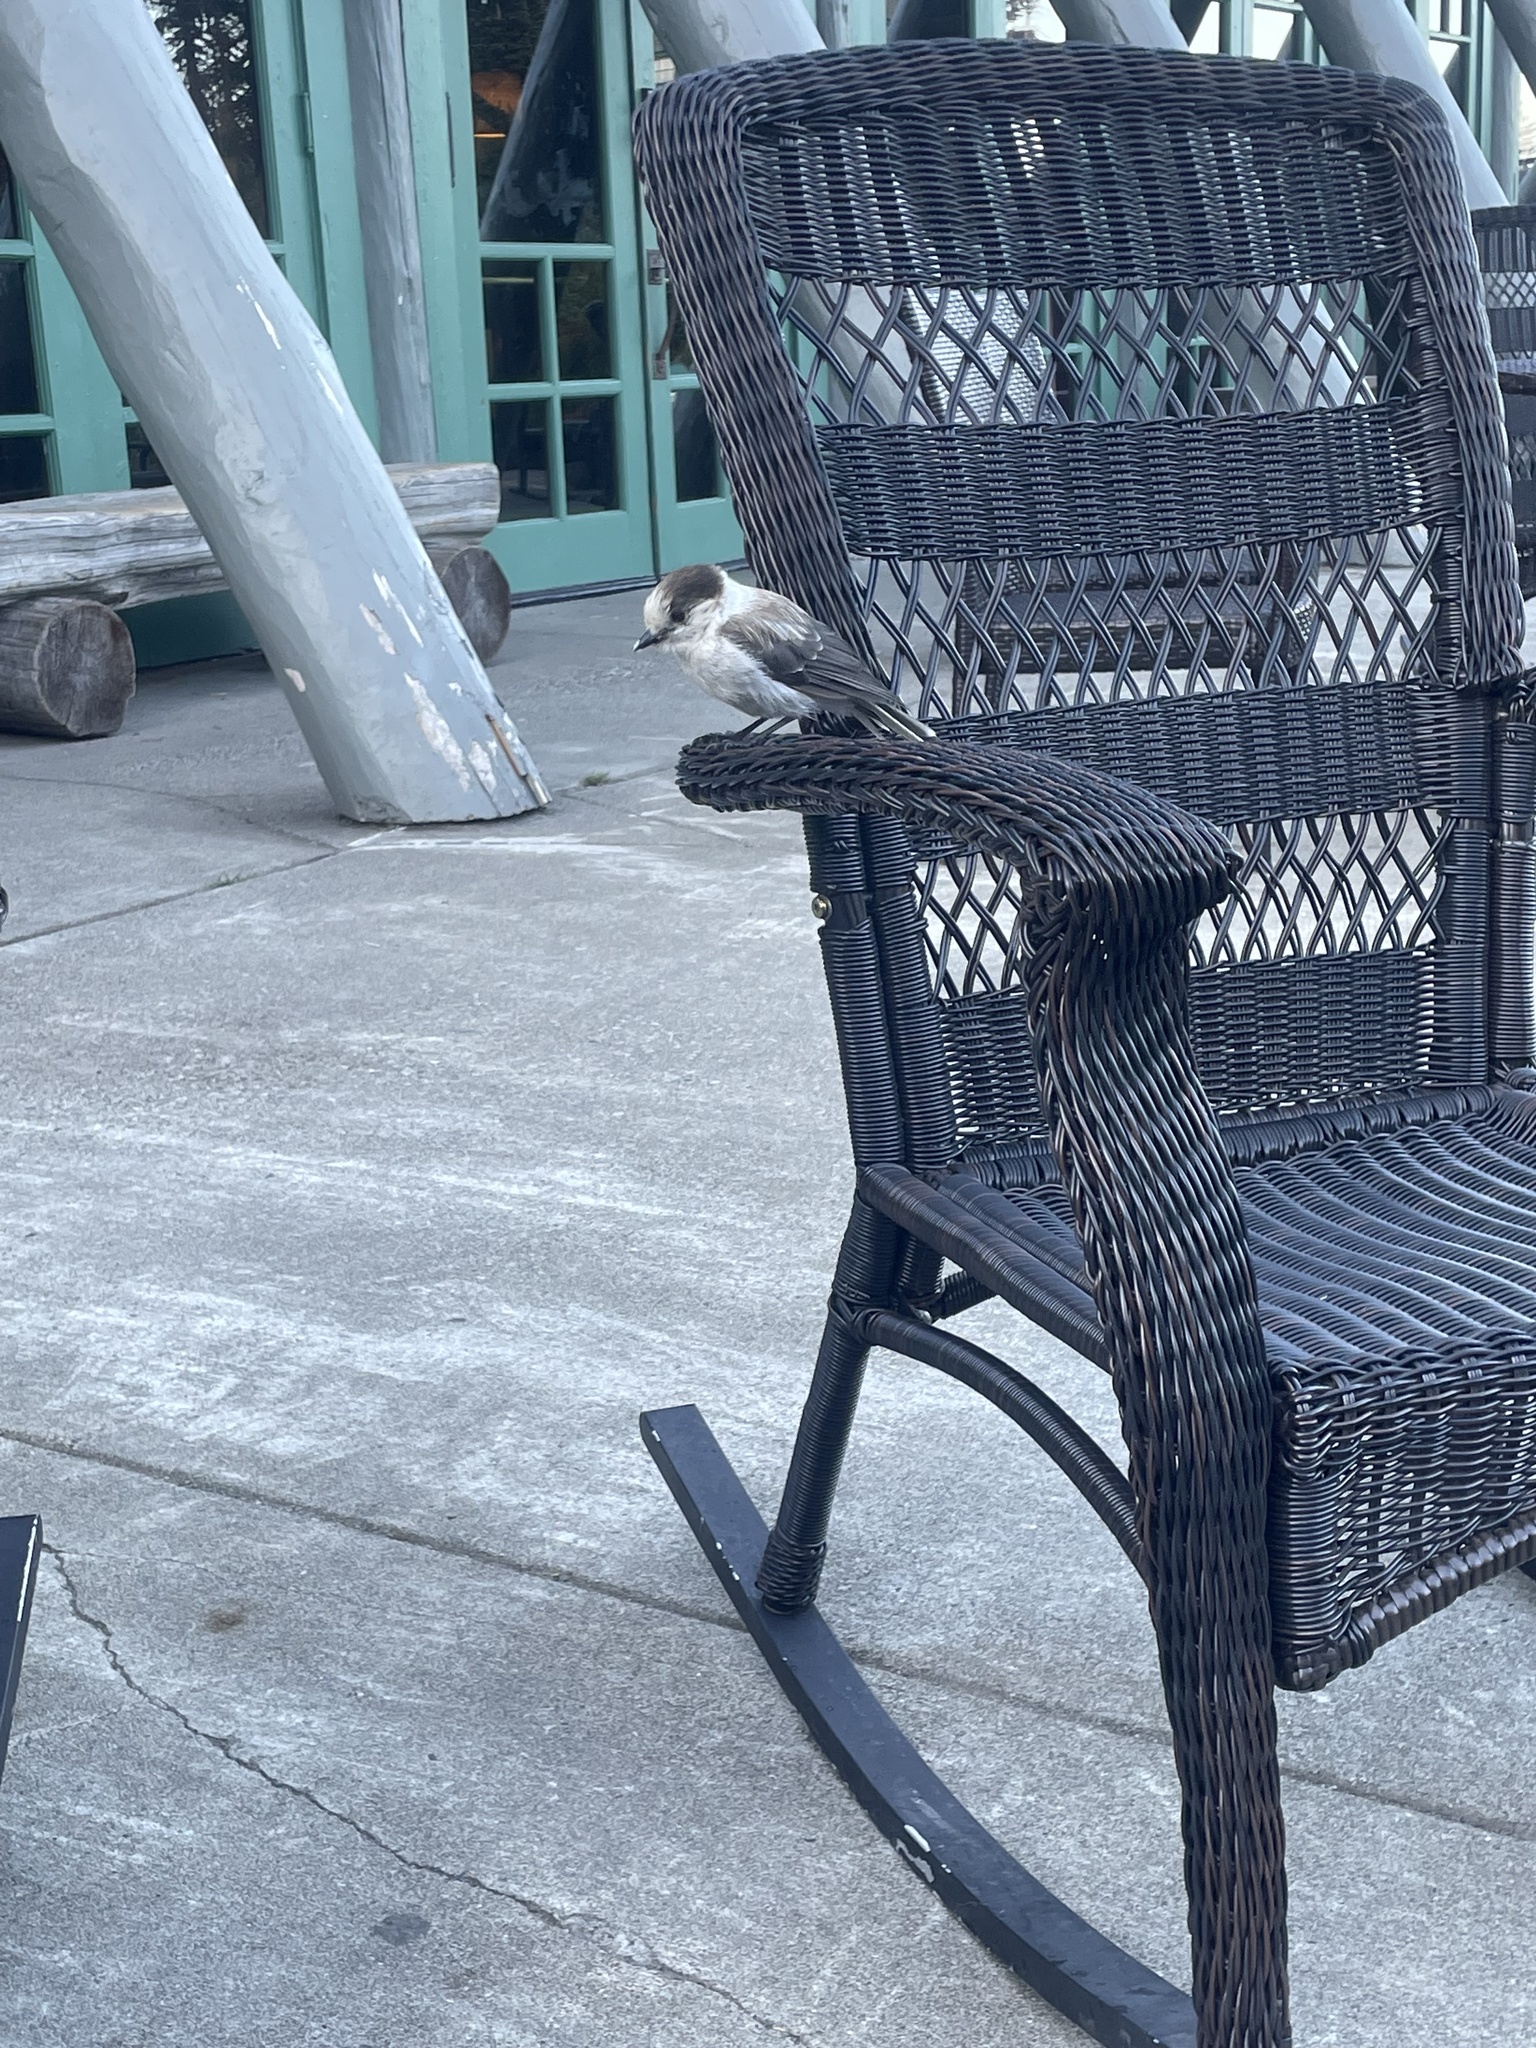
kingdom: Animalia
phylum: Chordata
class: Aves
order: Passeriformes
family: Corvidae
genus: Perisoreus
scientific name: Perisoreus canadensis
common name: Gray jay
